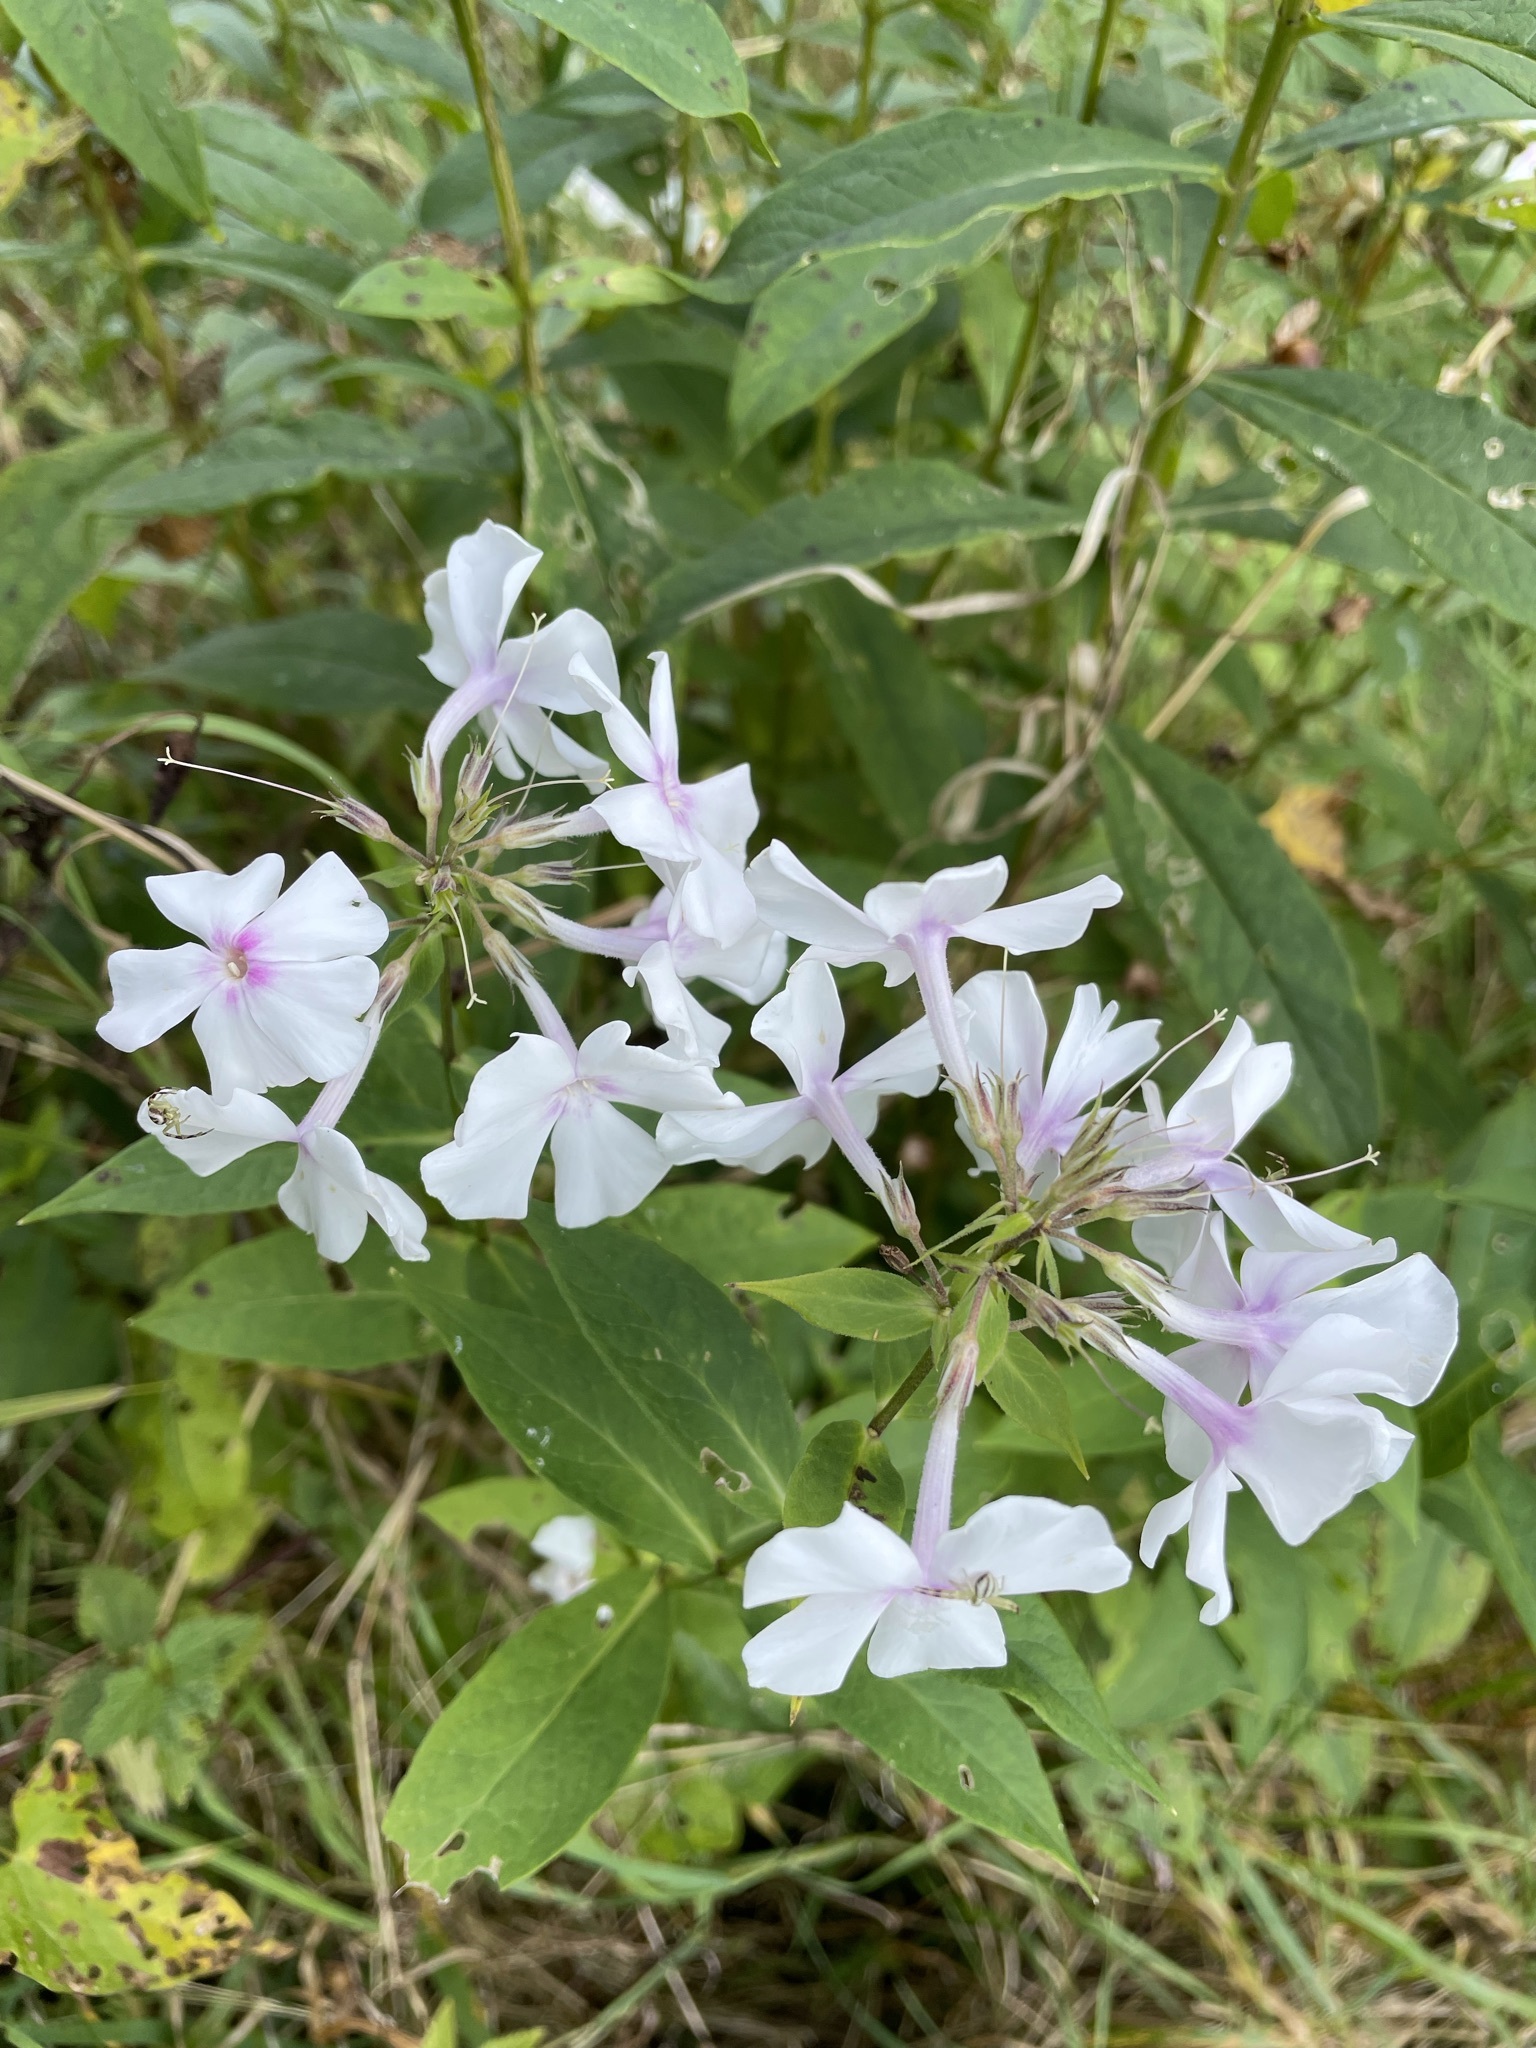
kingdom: Plantae
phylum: Tracheophyta
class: Magnoliopsida
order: Ericales
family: Polemoniaceae
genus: Phlox
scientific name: Phlox paniculata
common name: Fall phlox
